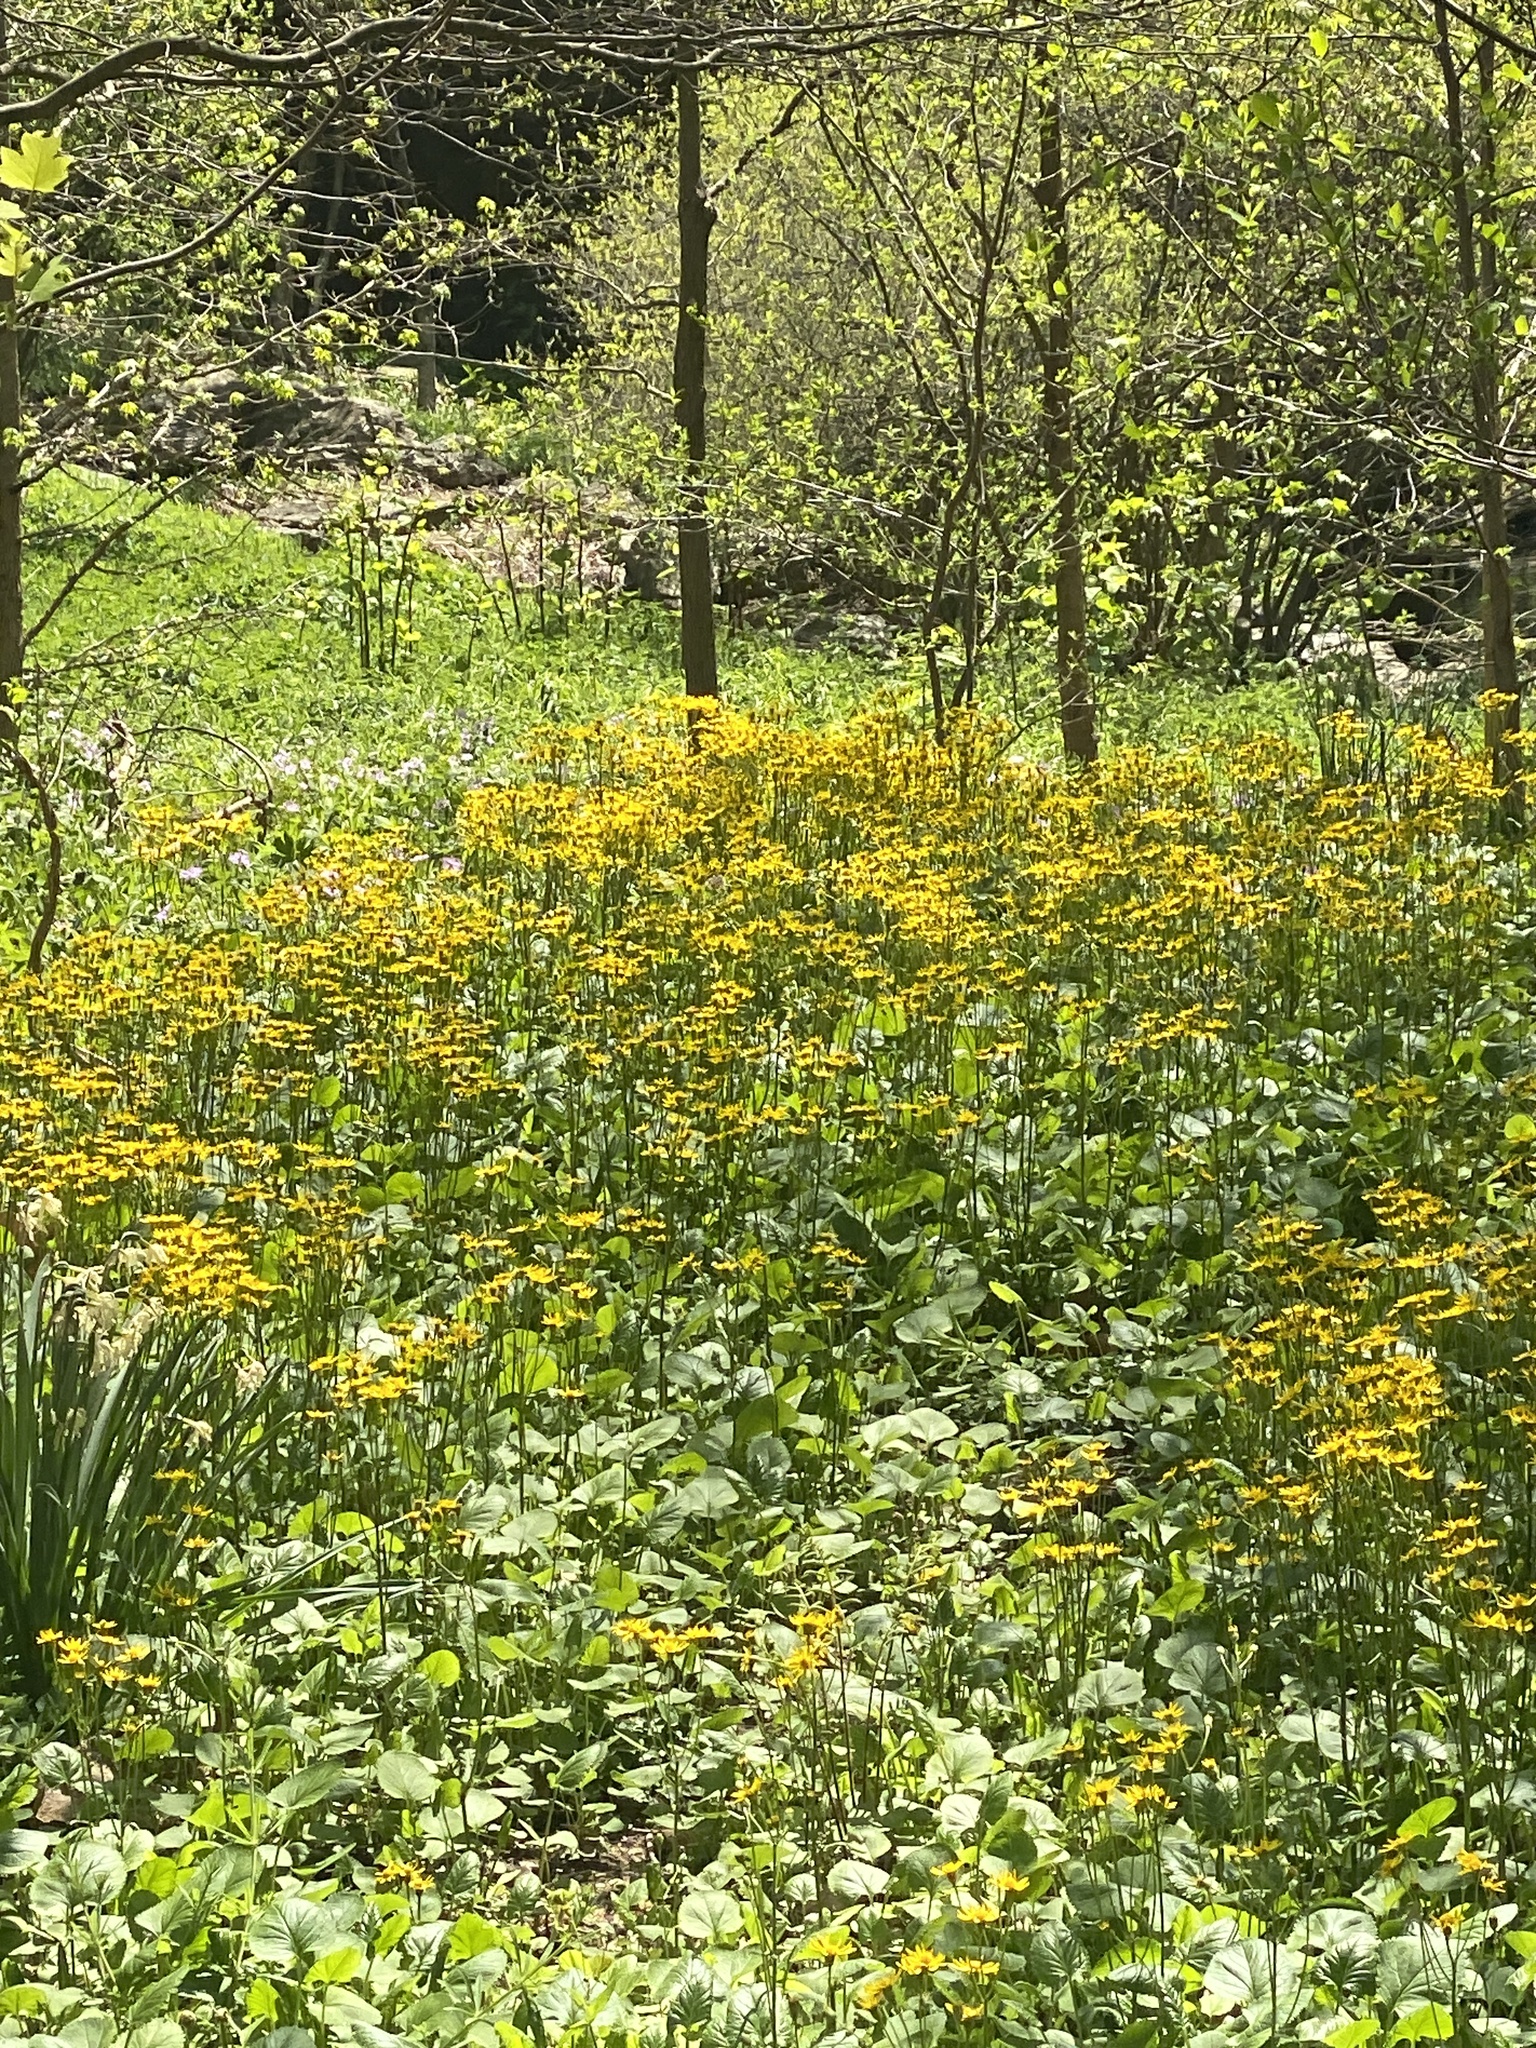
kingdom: Plantae
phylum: Tracheophyta
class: Magnoliopsida
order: Asterales
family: Asteraceae
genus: Packera
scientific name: Packera aurea
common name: Golden groundsel
